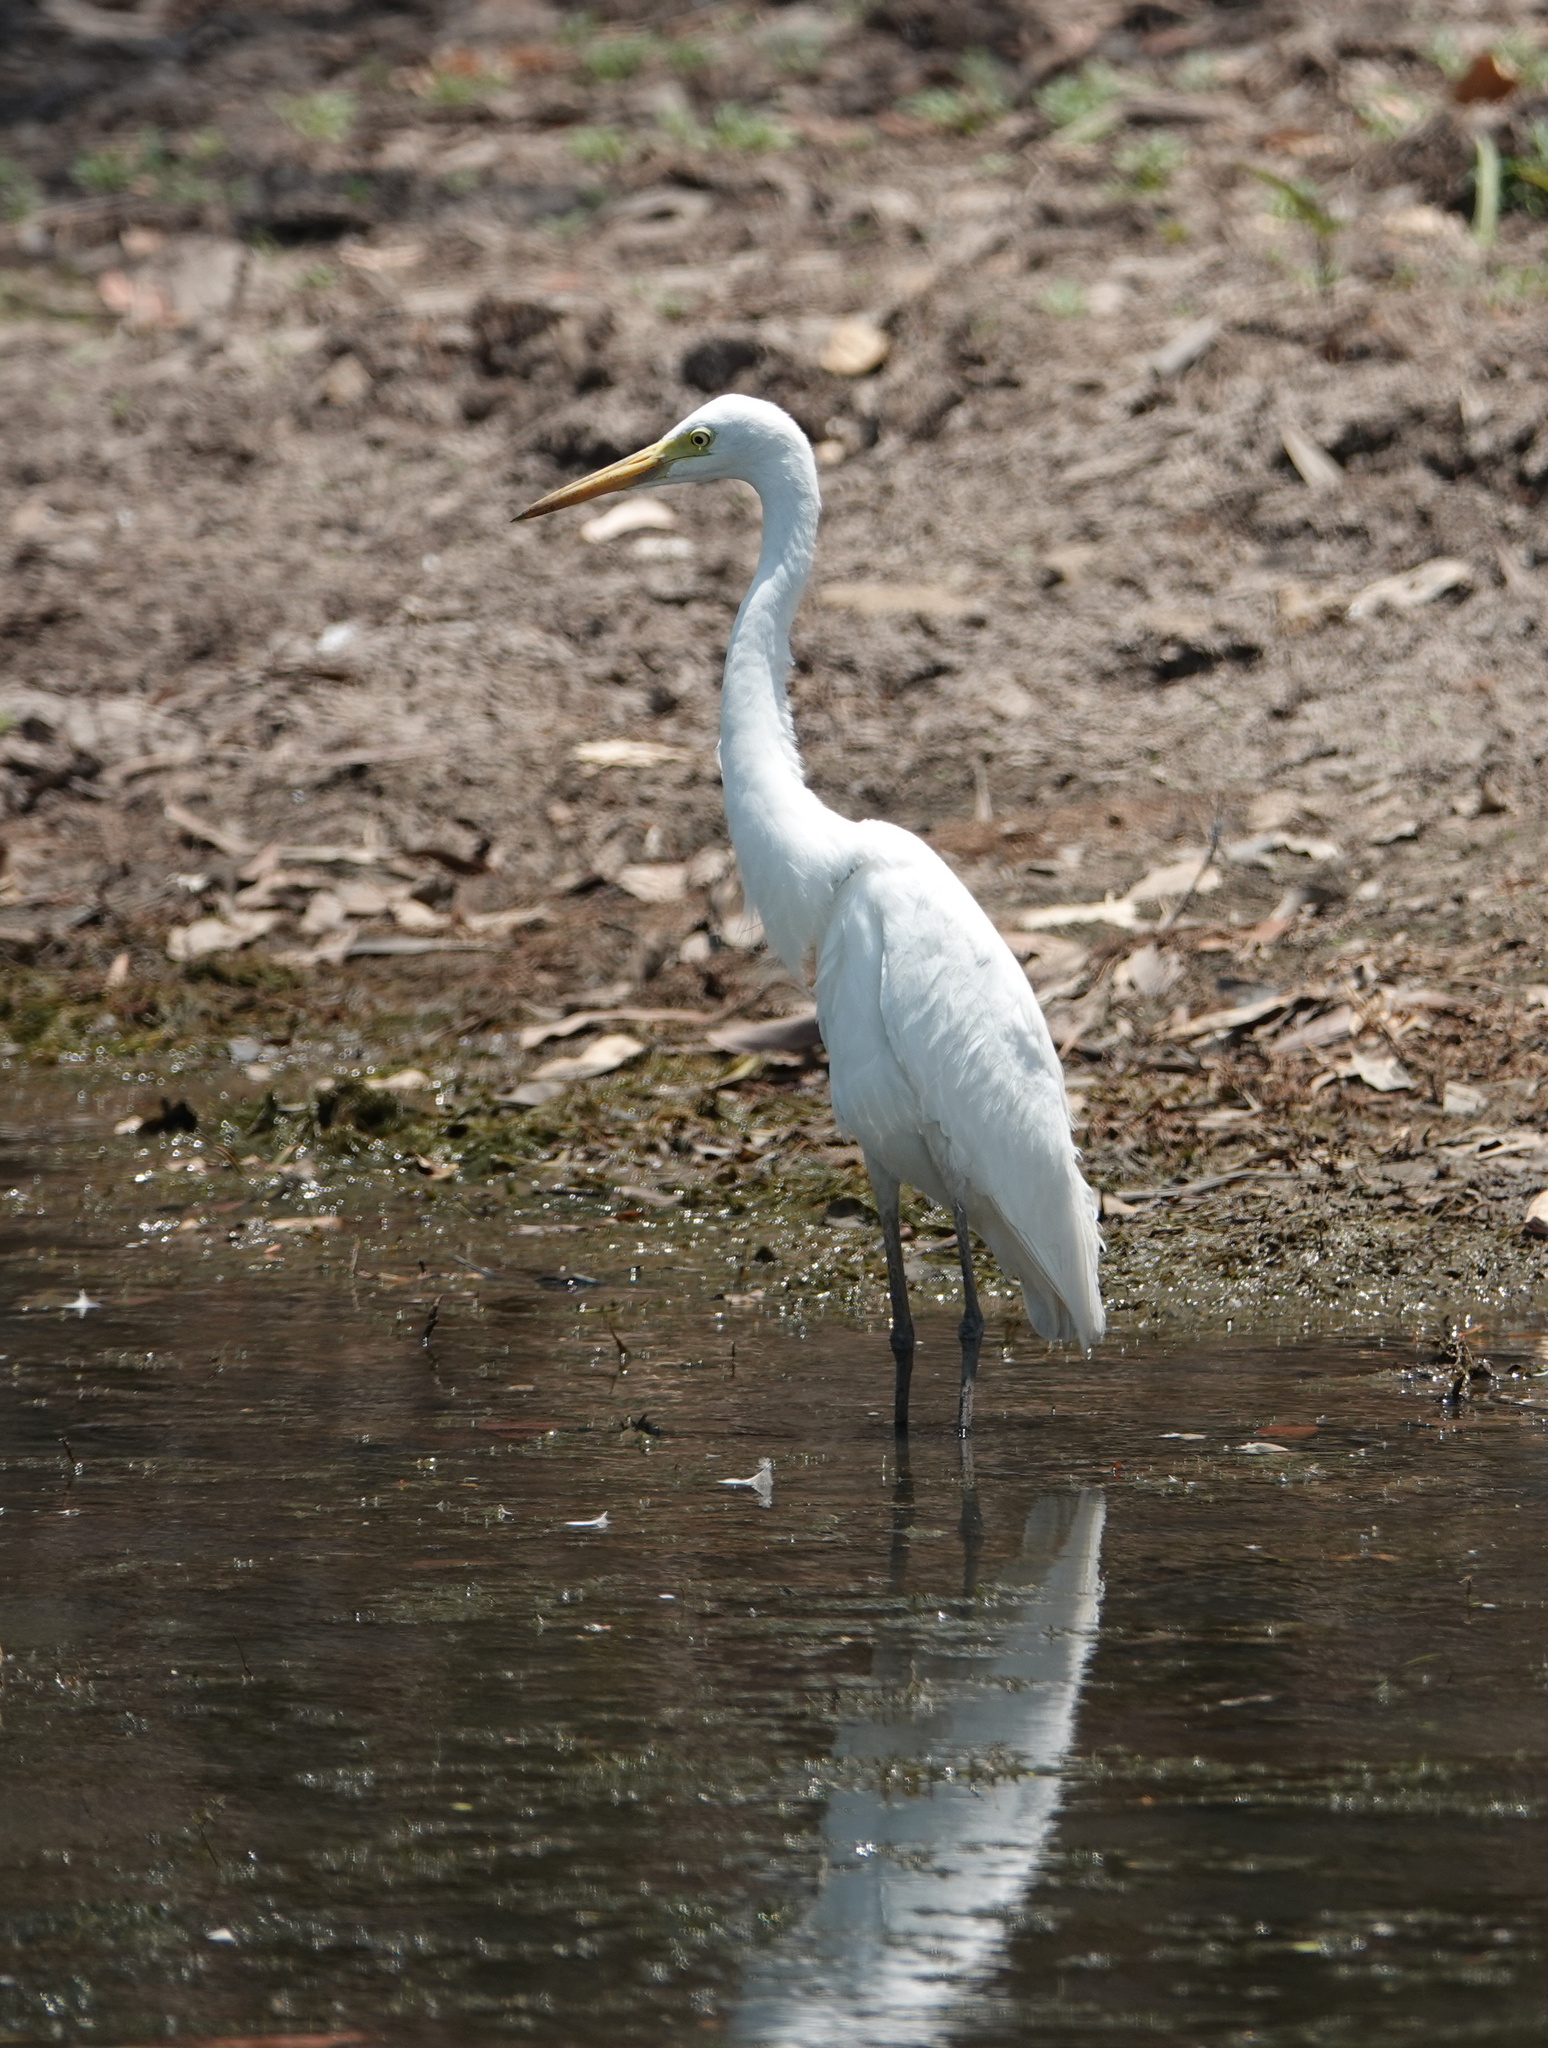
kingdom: Animalia
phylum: Chordata
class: Aves
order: Pelecaniformes
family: Ardeidae
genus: Egretta
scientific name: Egretta intermedia
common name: Intermediate egret
